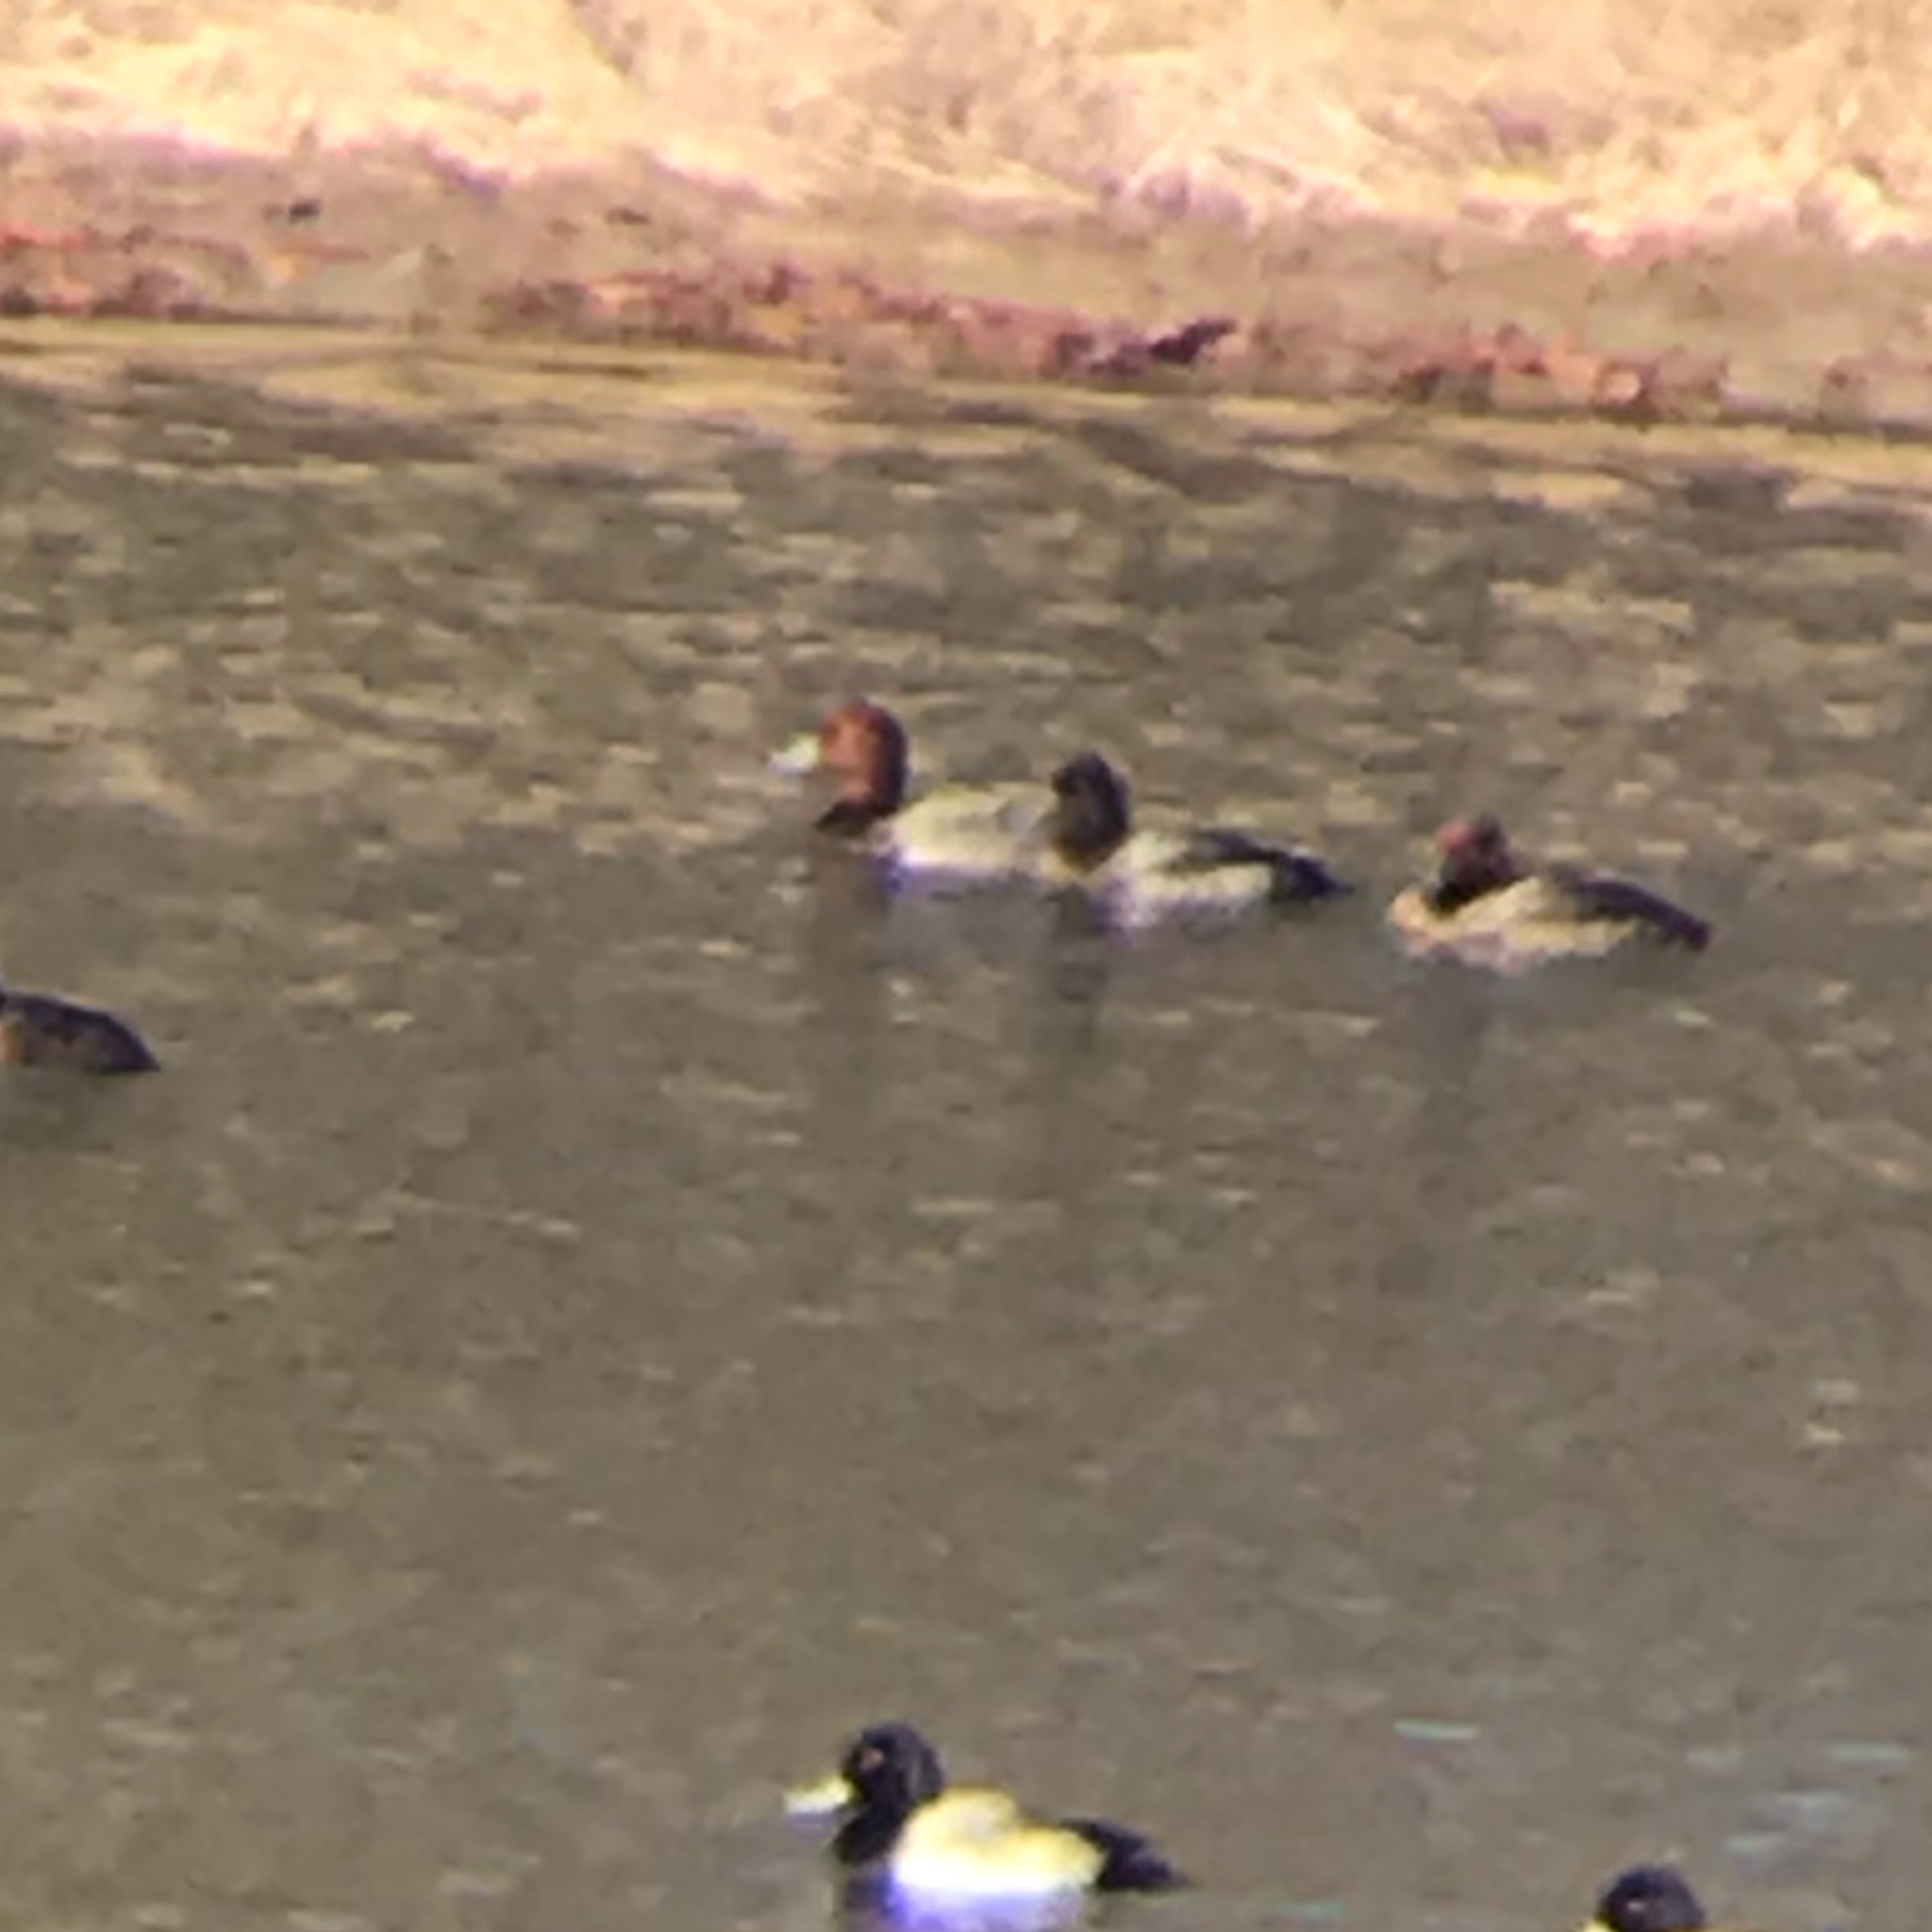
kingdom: Animalia
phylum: Chordata
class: Aves
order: Anseriformes
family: Anatidae
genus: Aythya
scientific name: Aythya americana
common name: Redhead
